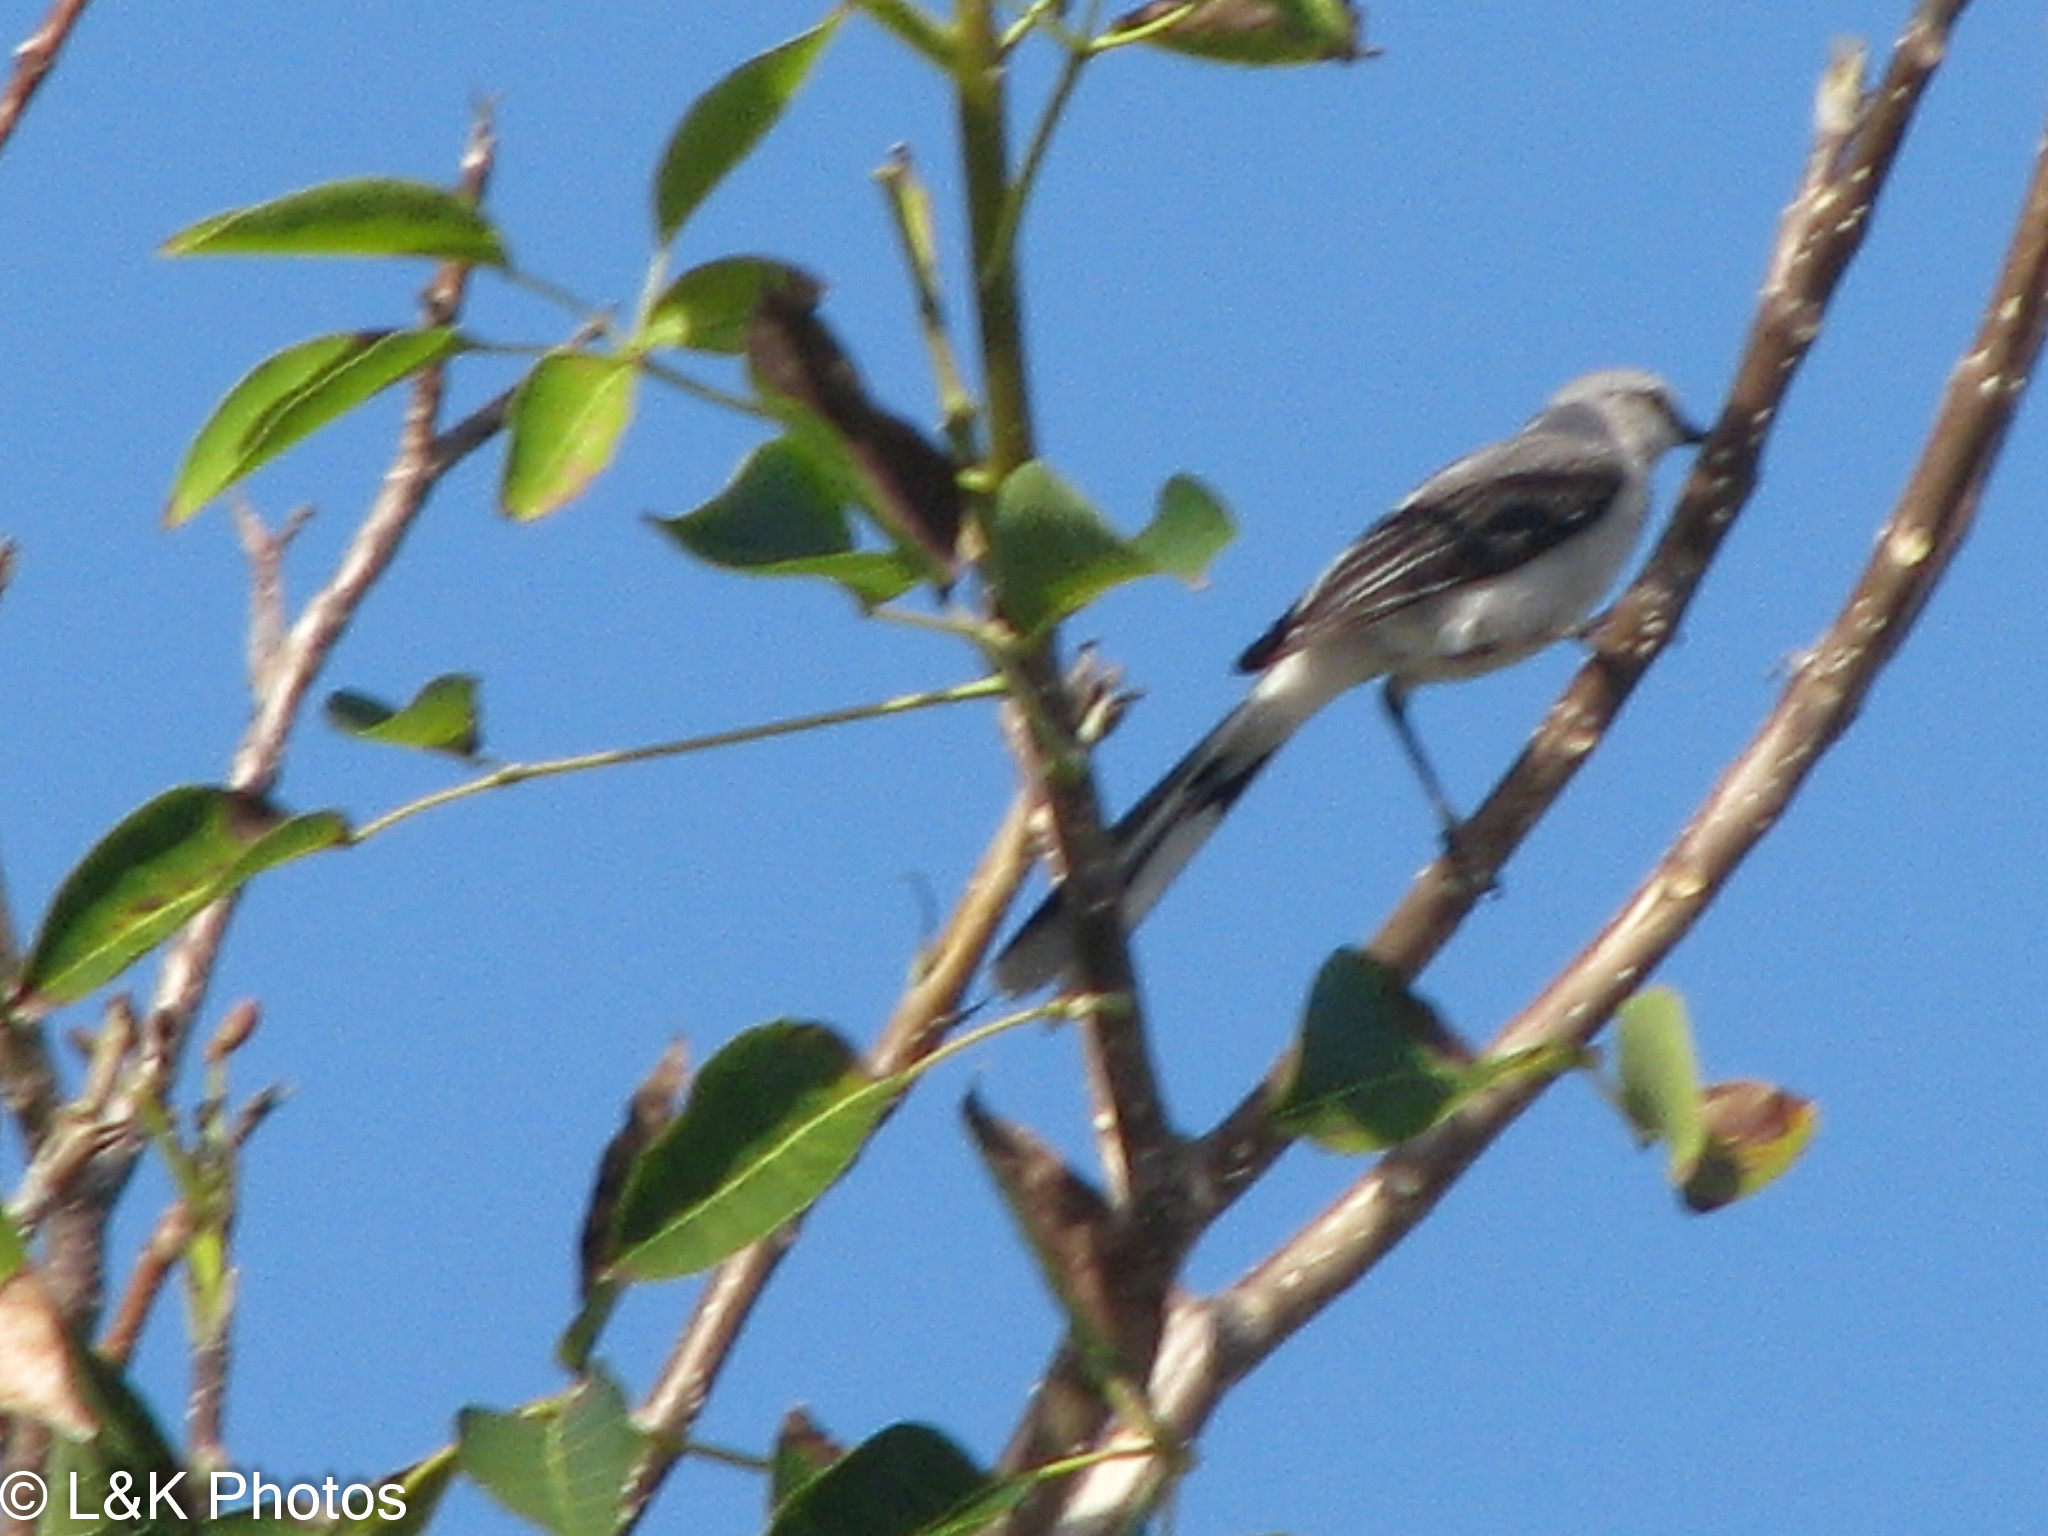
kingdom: Animalia
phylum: Chordata
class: Aves
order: Passeriformes
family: Mimidae
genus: Mimus
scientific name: Mimus gilvus
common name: Tropical mockingbird
